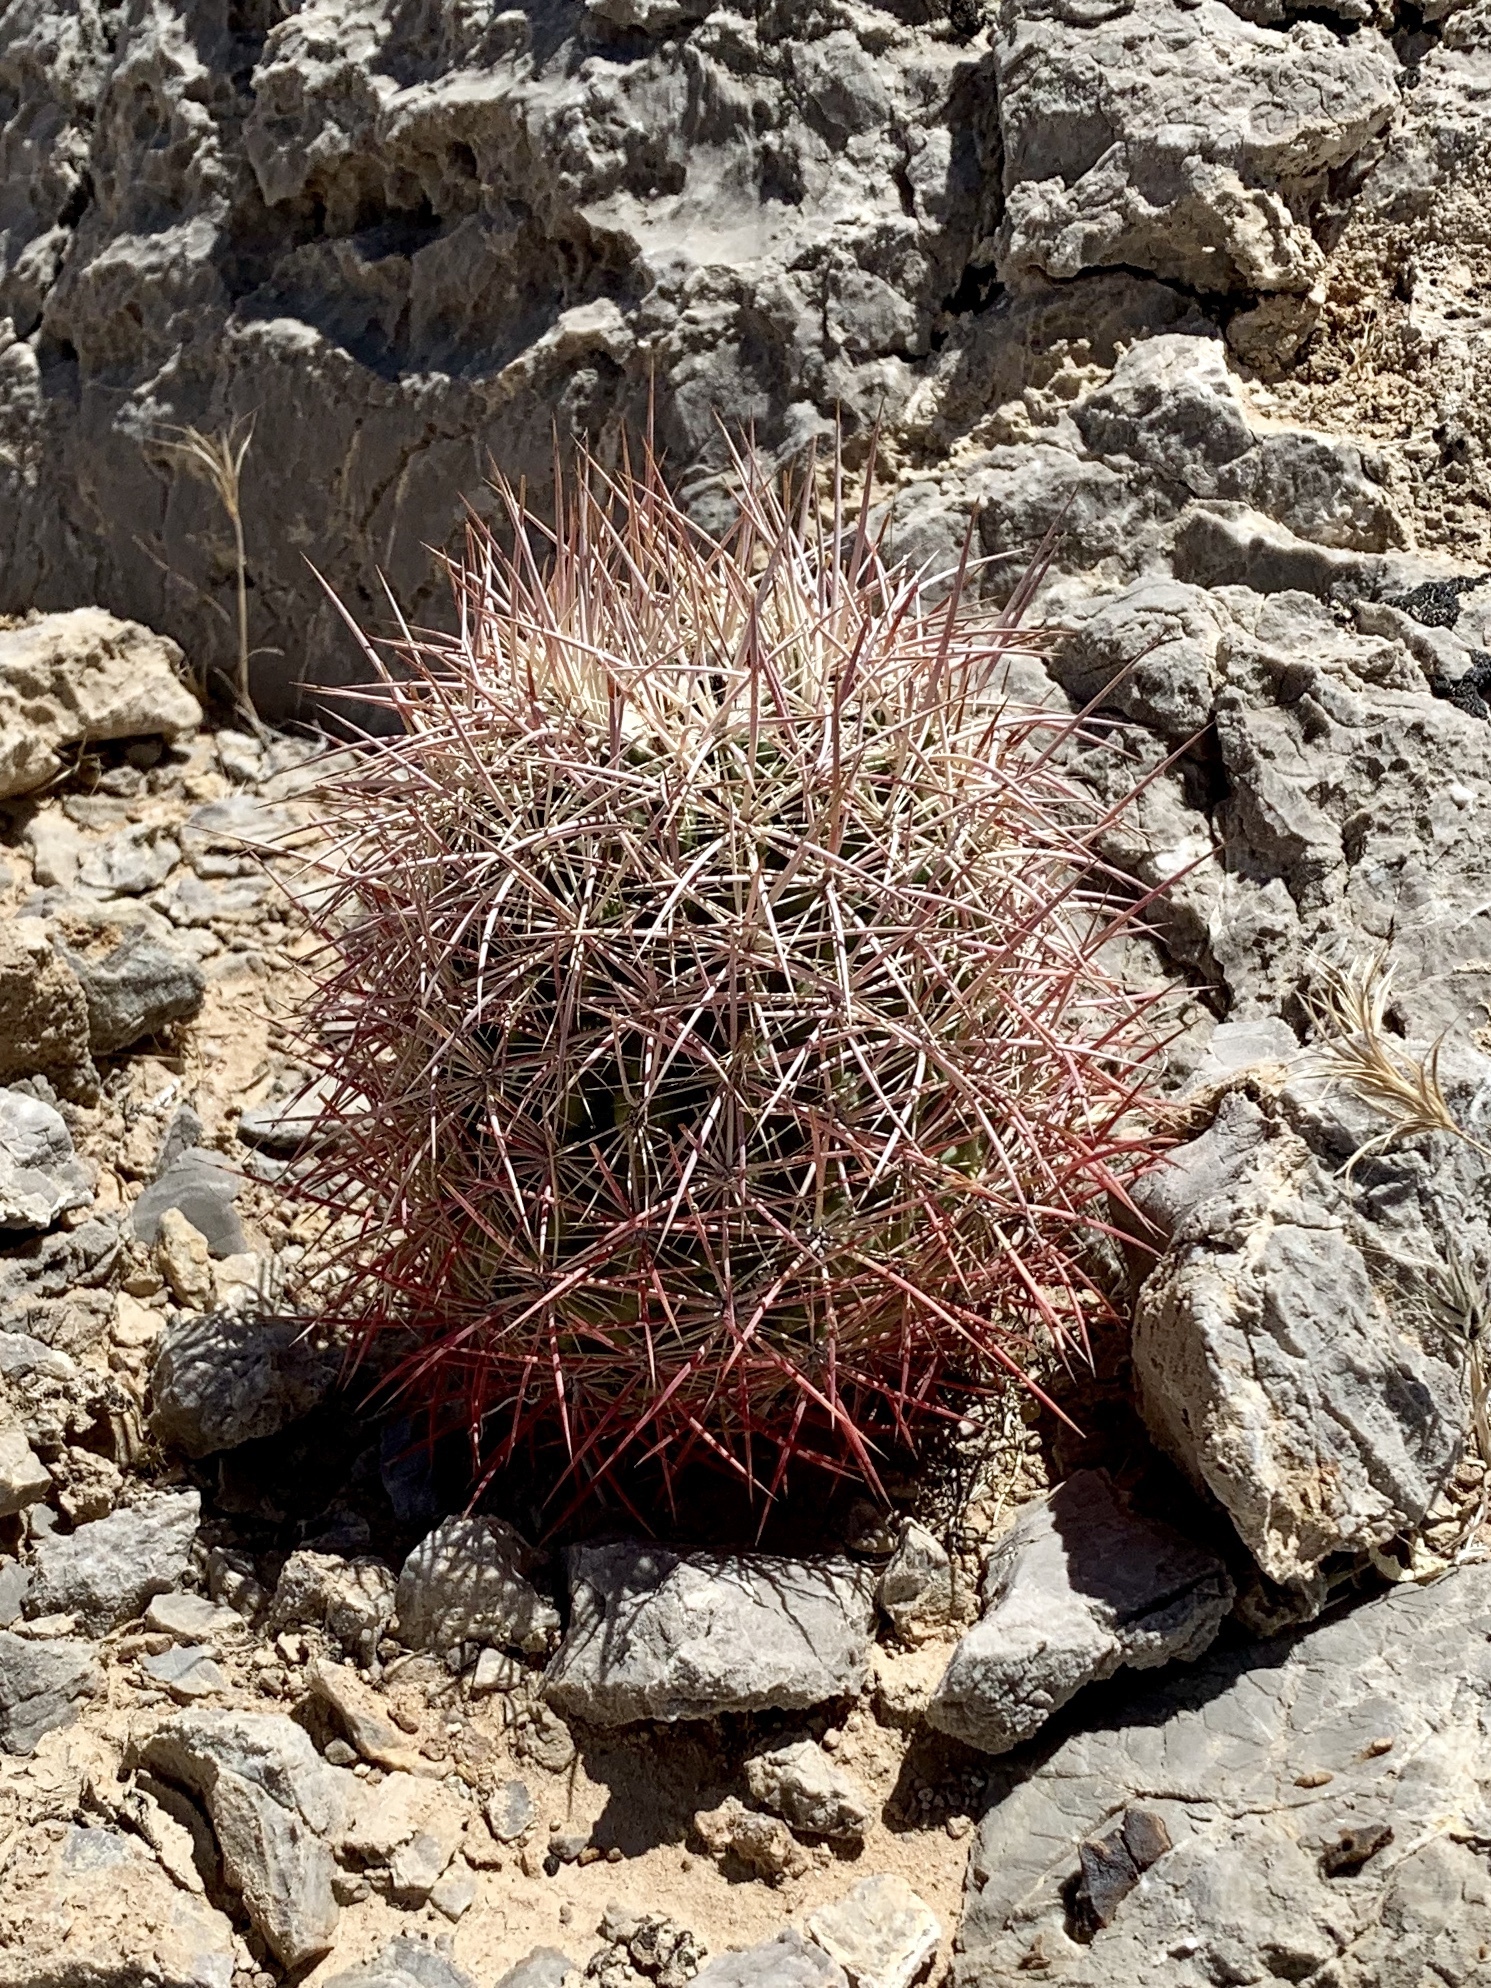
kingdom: Plantae
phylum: Tracheophyta
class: Magnoliopsida
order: Caryophyllales
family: Cactaceae
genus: Sclerocactus
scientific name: Sclerocactus johnsonii
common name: Eight-spine fishhook cactus
